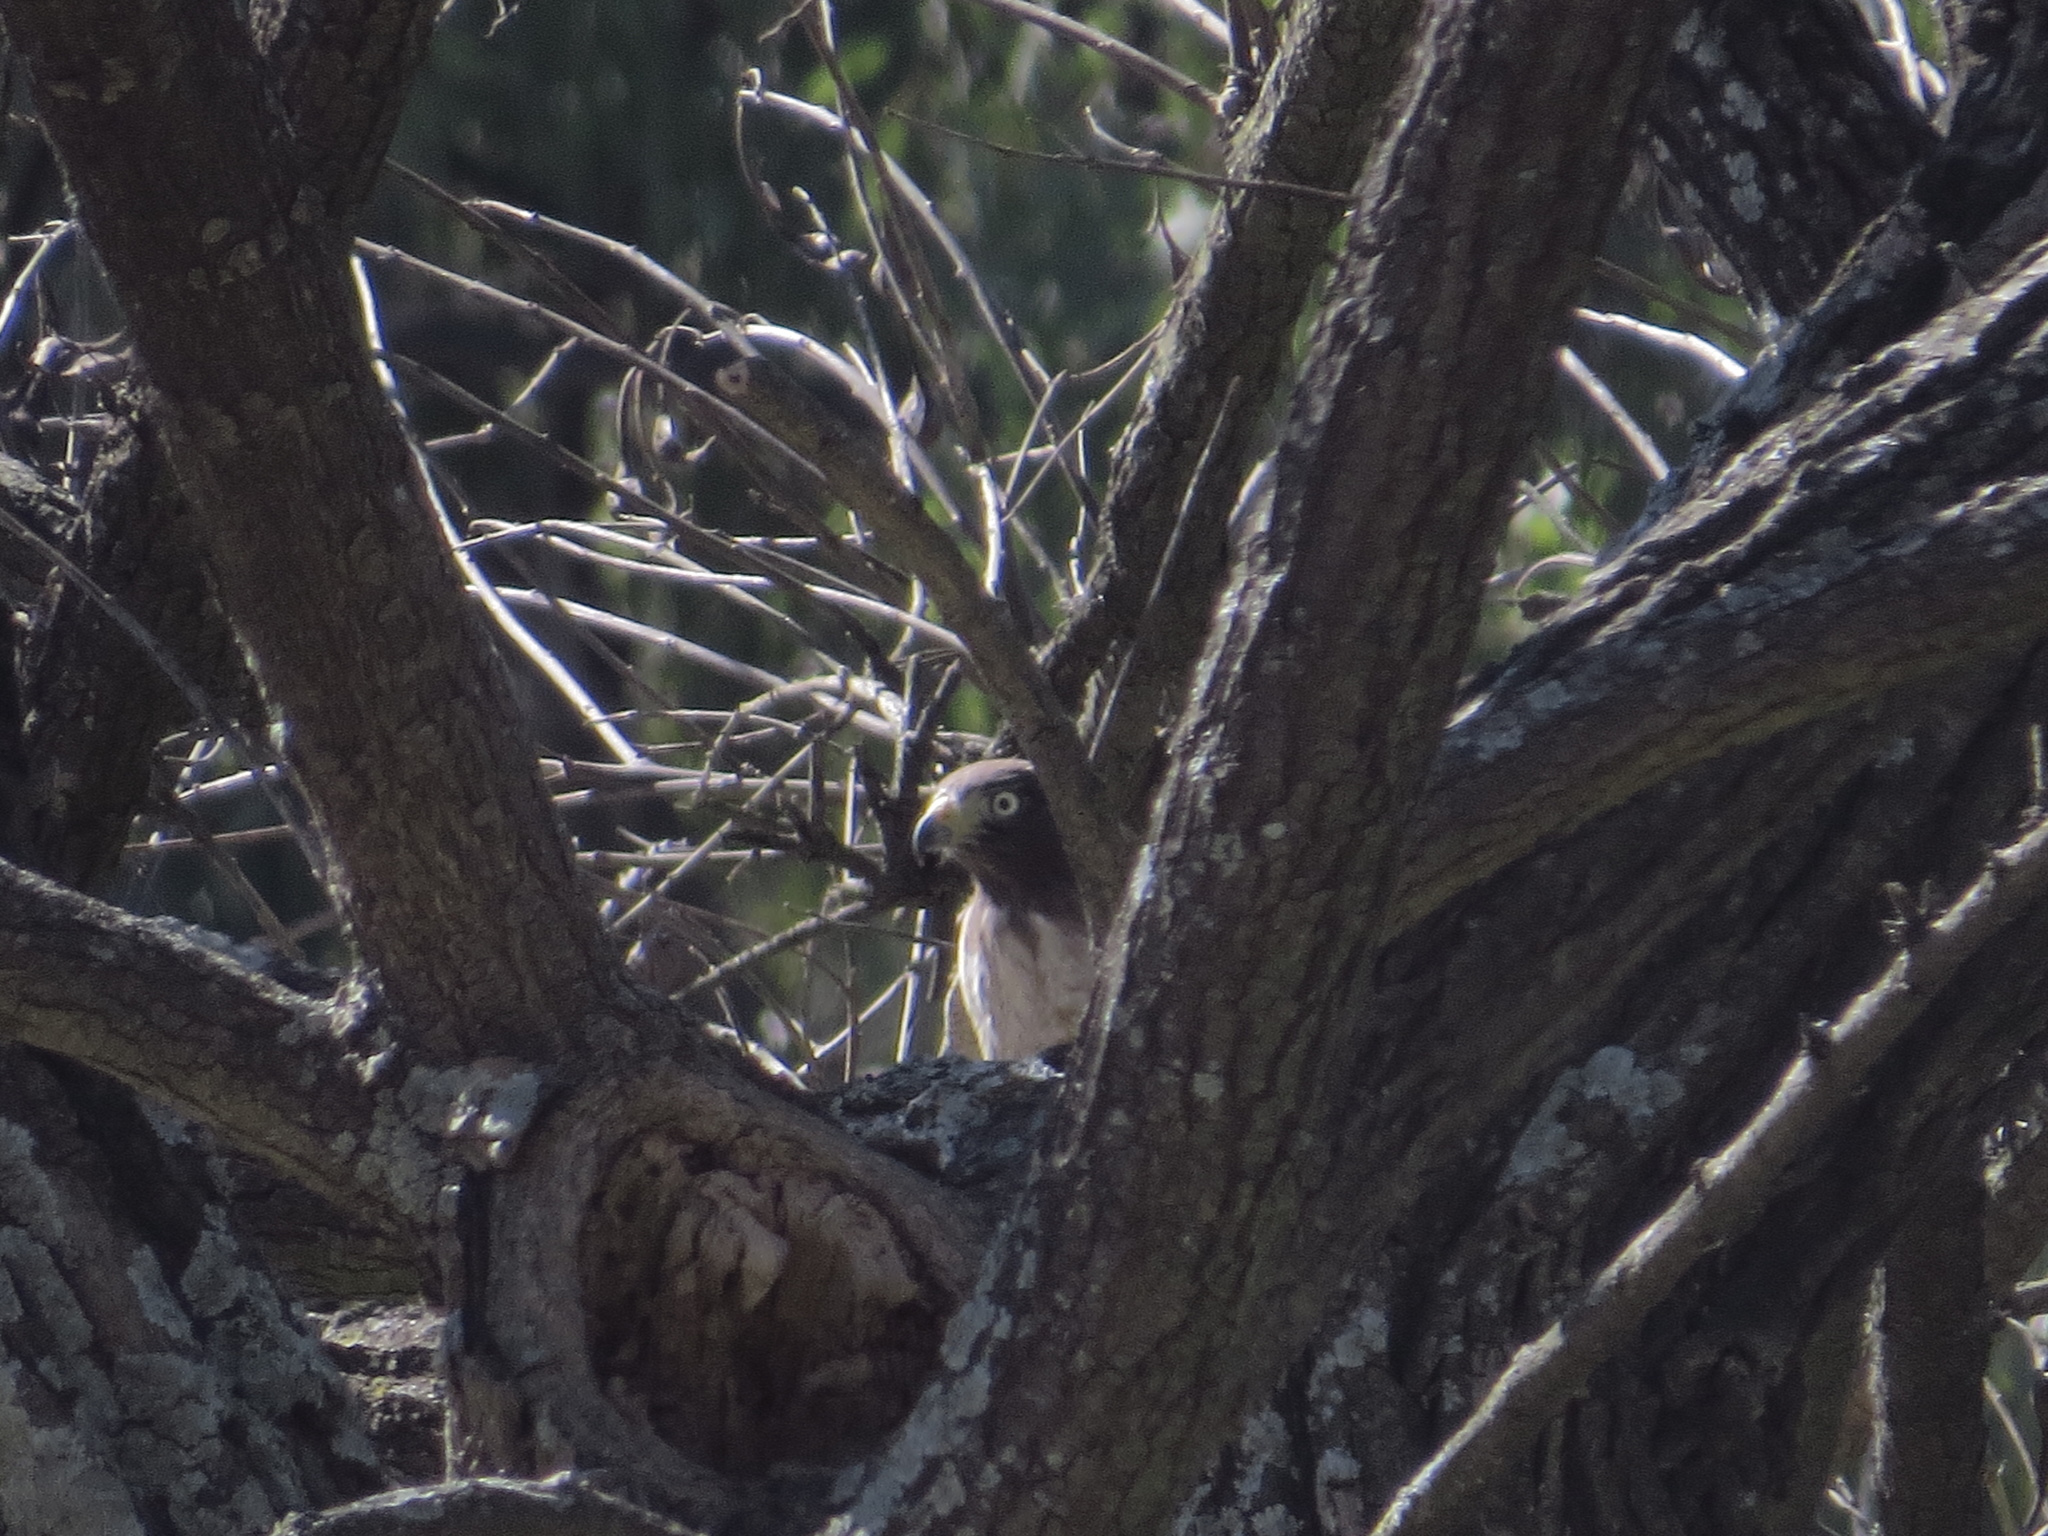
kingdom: Animalia
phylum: Chordata
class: Aves
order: Accipitriformes
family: Accipitridae
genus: Rupornis
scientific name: Rupornis magnirostris
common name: Roadside hawk
